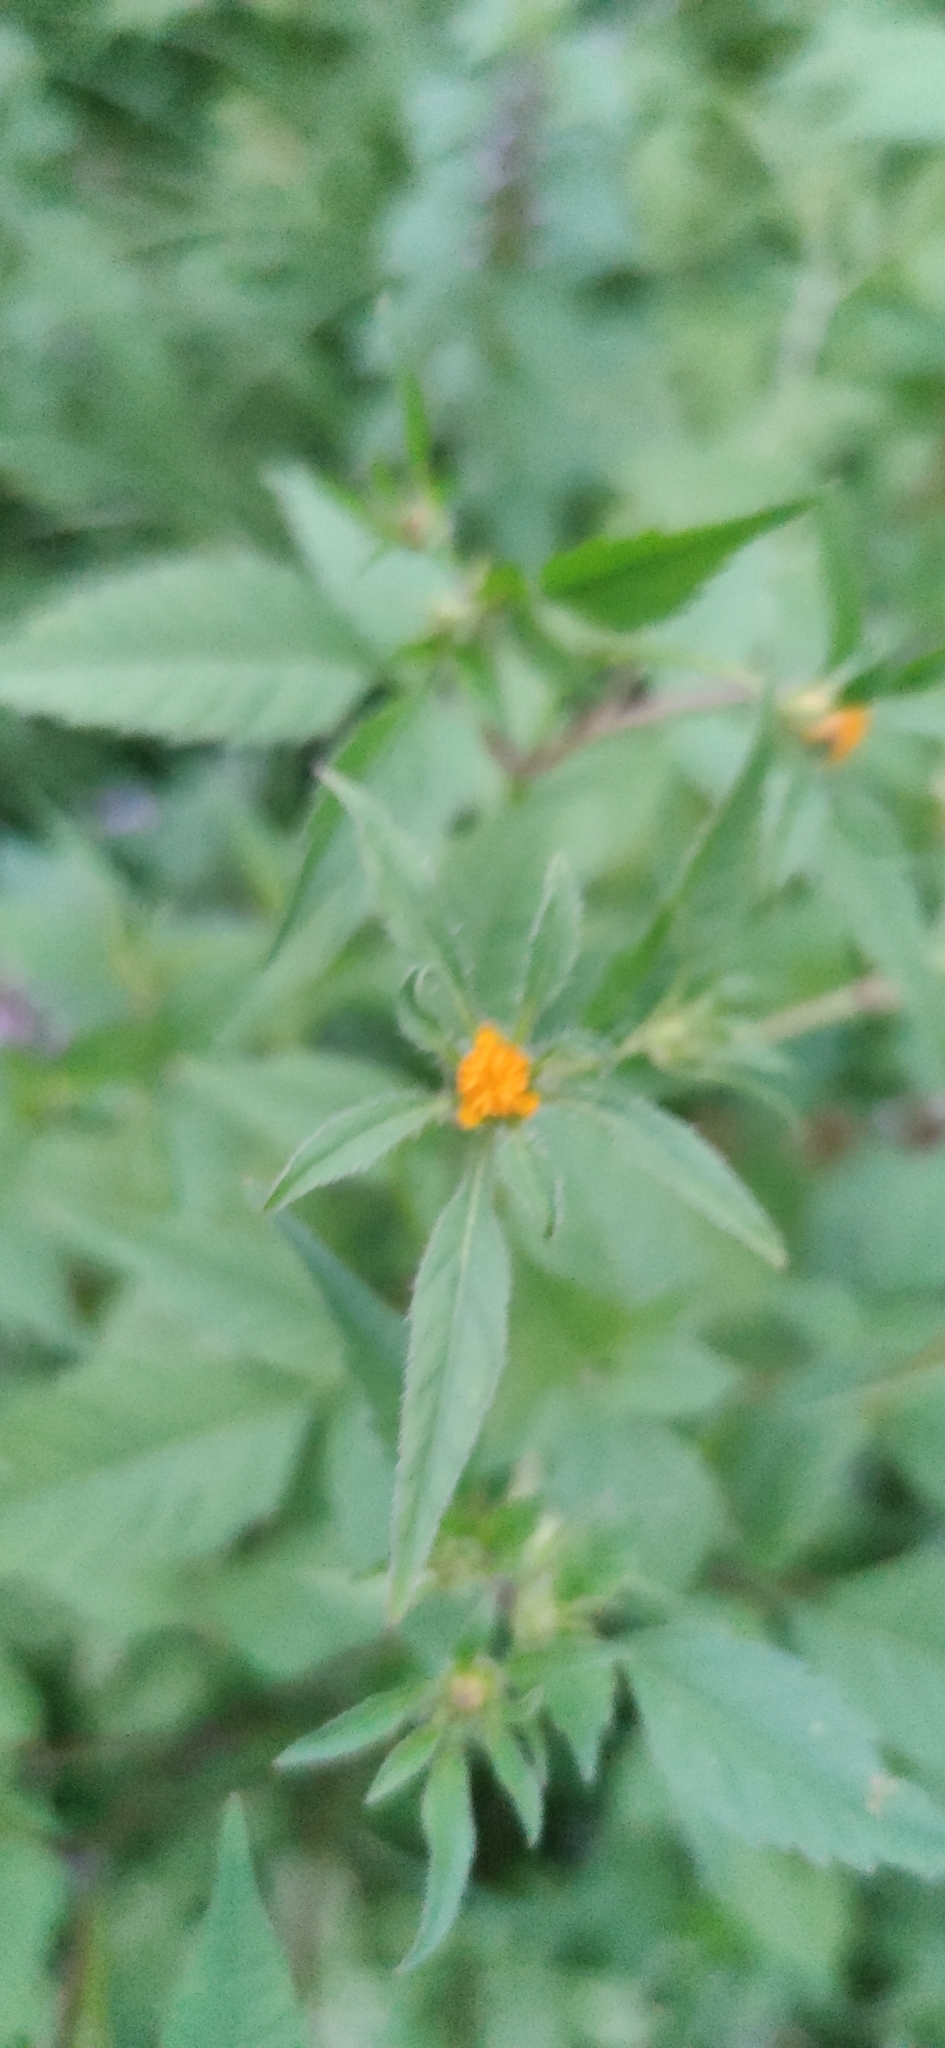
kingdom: Plantae
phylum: Tracheophyta
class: Magnoliopsida
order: Asterales
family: Asteraceae
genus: Bidens
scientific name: Bidens frondosa
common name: Beggarticks
